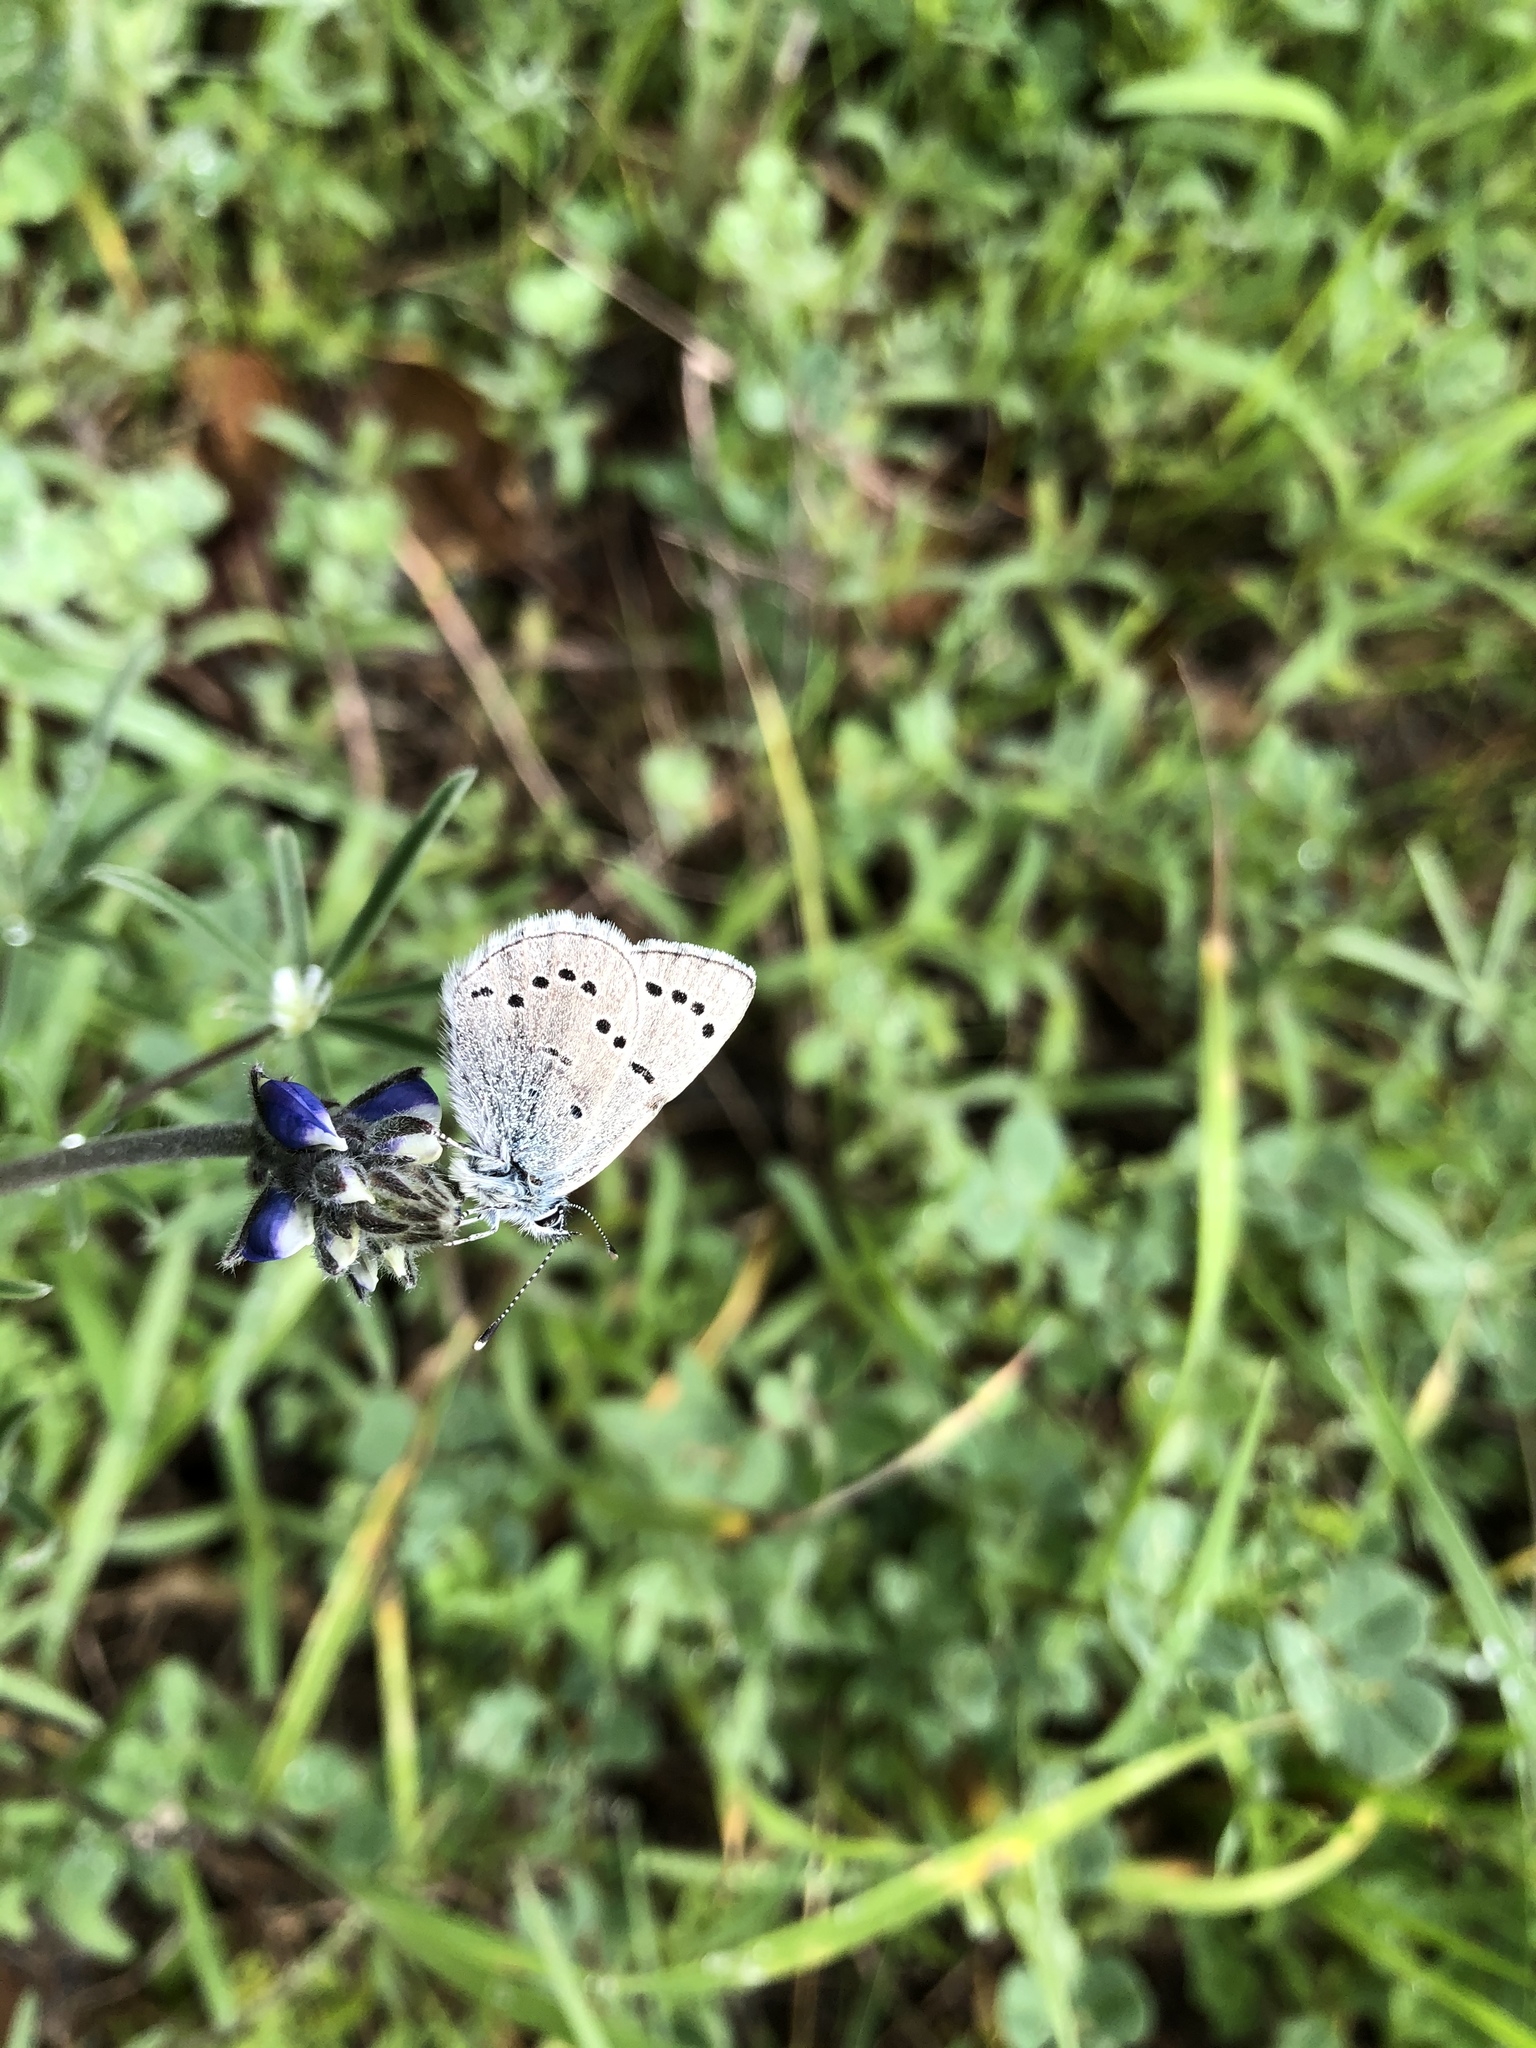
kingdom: Animalia
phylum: Arthropoda
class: Insecta
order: Lepidoptera
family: Lycaenidae
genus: Glaucopsyche
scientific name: Glaucopsyche lygdamus
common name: Silvery blue
